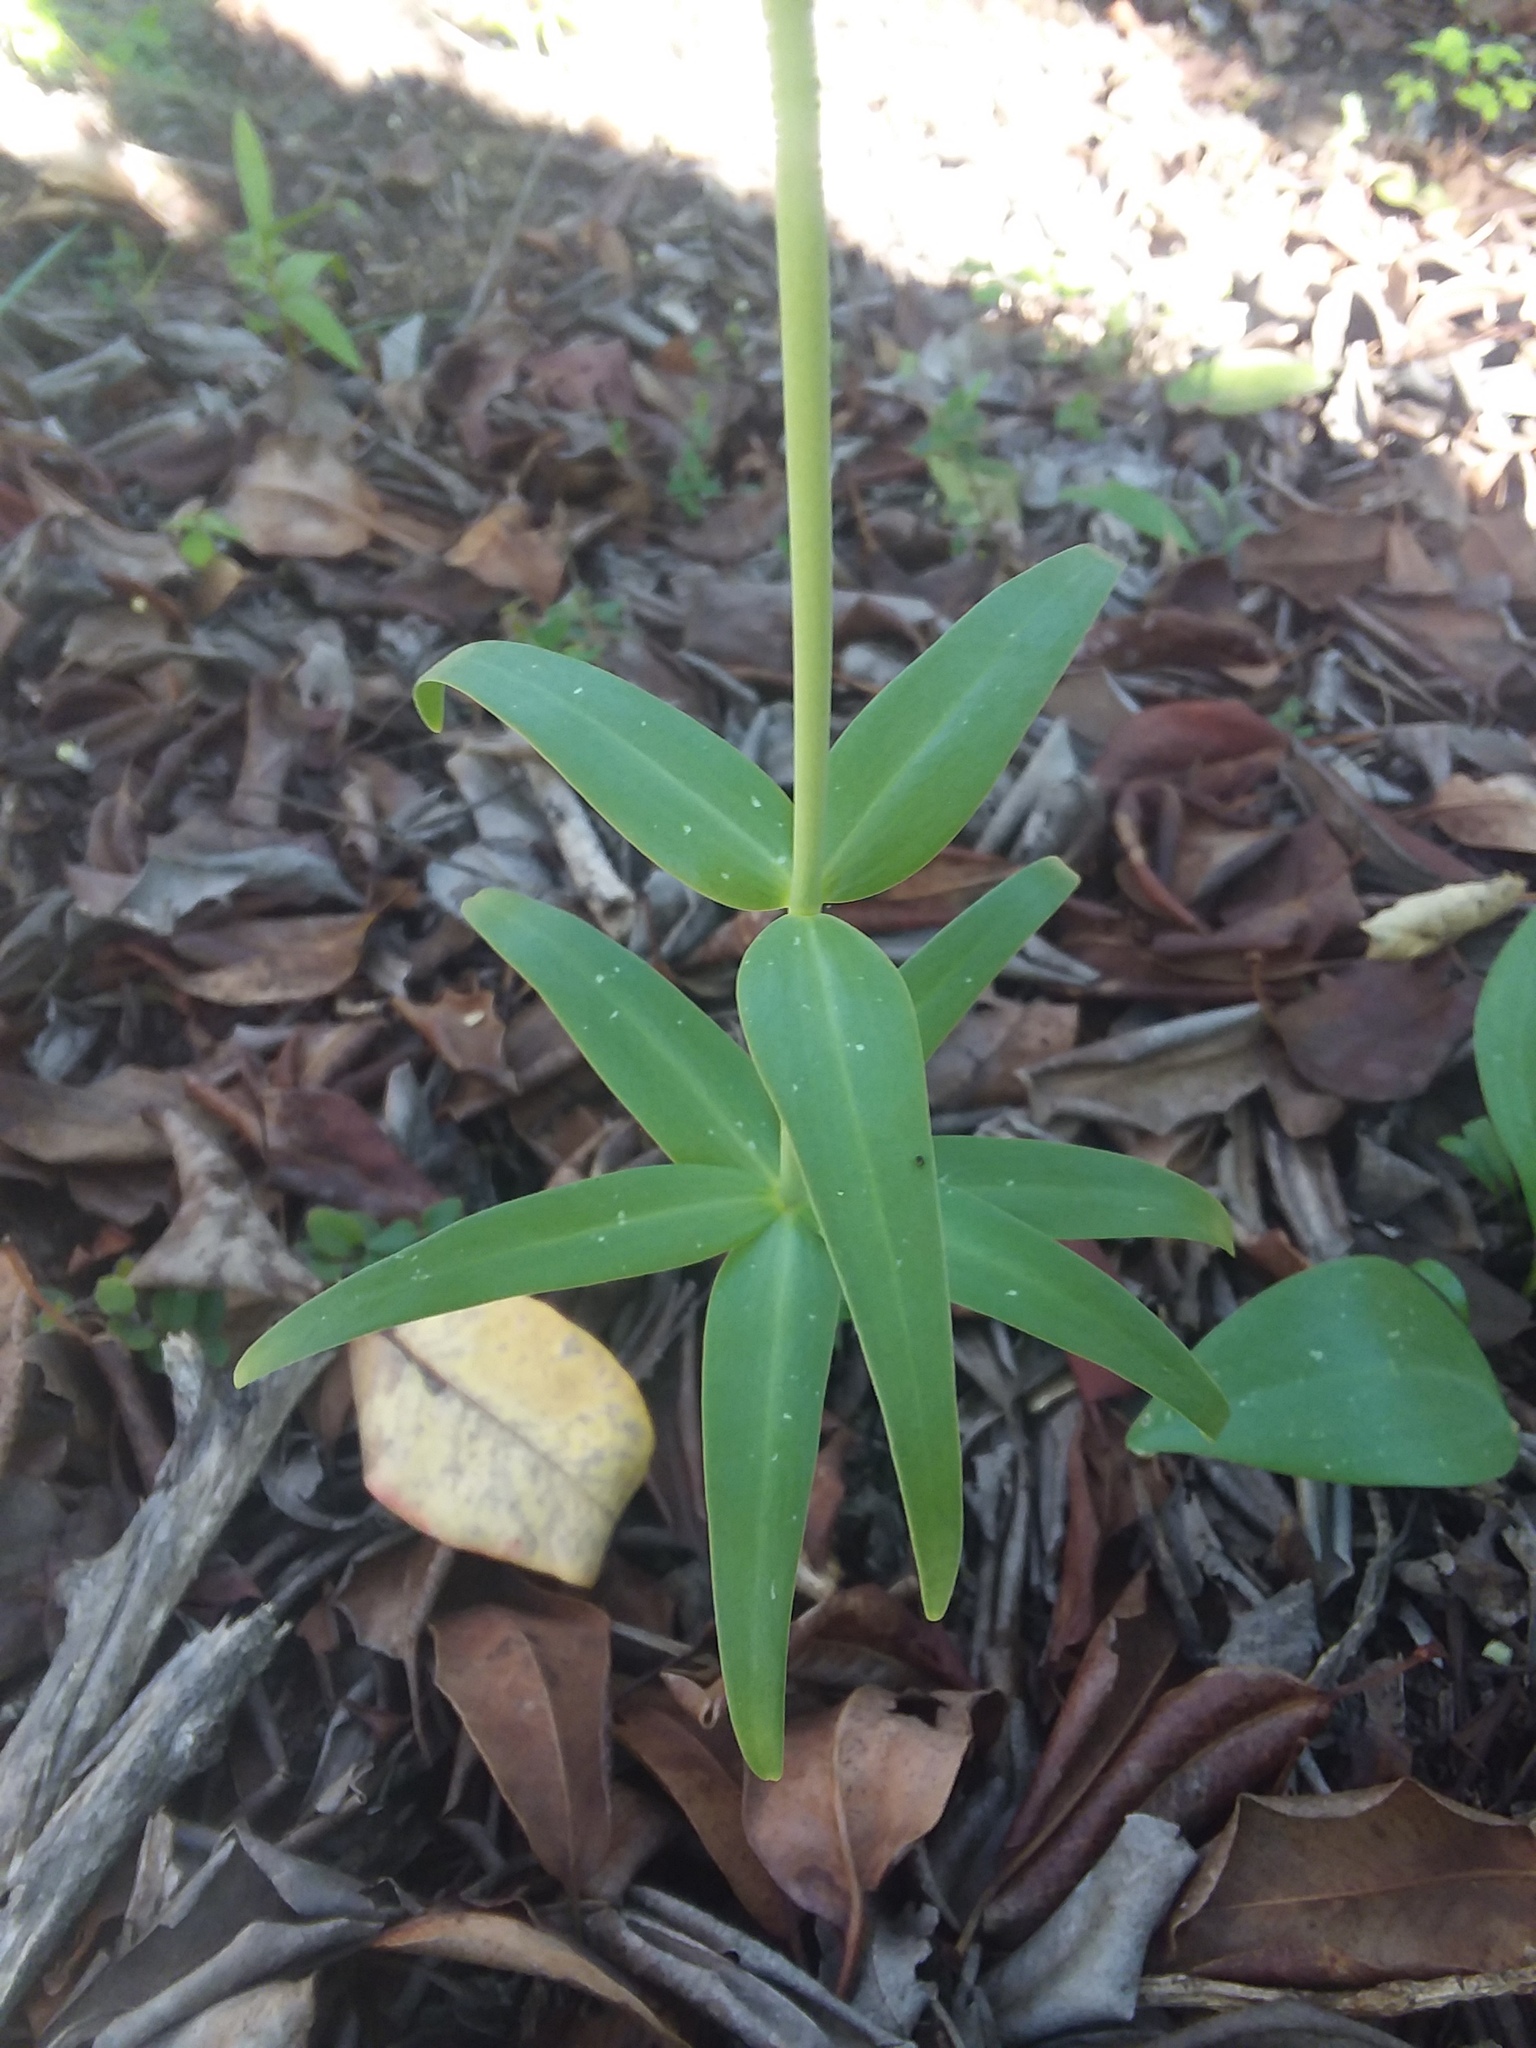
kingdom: Plantae
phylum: Tracheophyta
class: Liliopsida
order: Liliales
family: Liliaceae
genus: Fritillaria
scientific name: Fritillaria affinis
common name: Ojai fritillary
